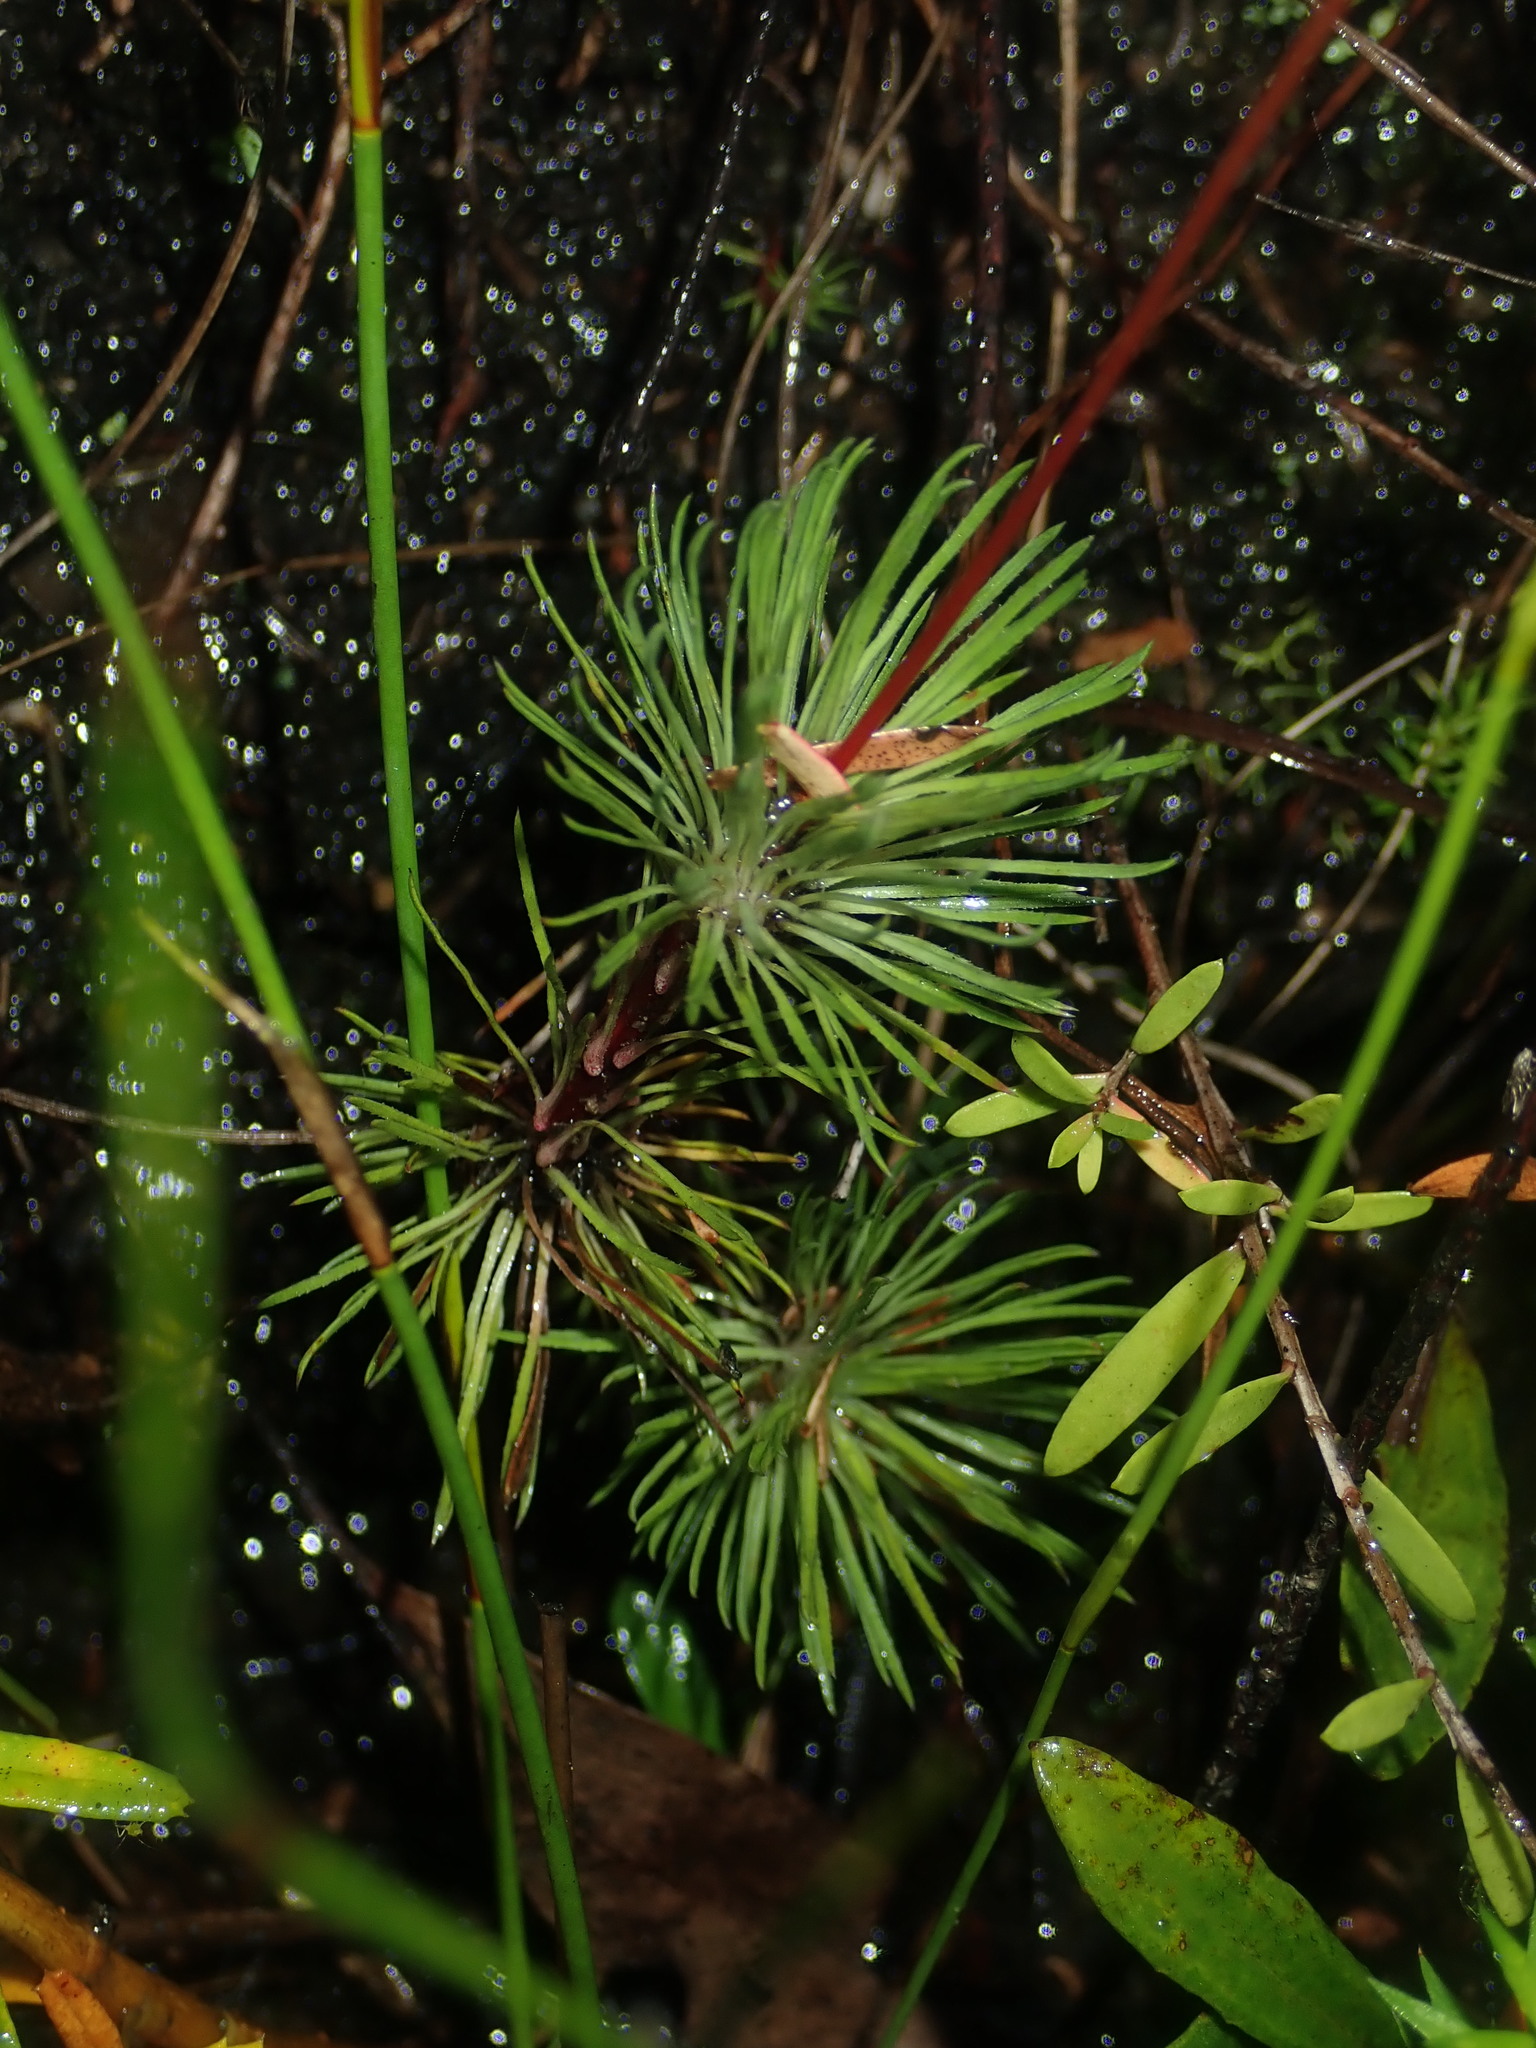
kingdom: Plantae
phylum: Tracheophyta
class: Magnoliopsida
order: Asterales
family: Stylidiaceae
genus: Stylidium
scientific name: Stylidium lineare
